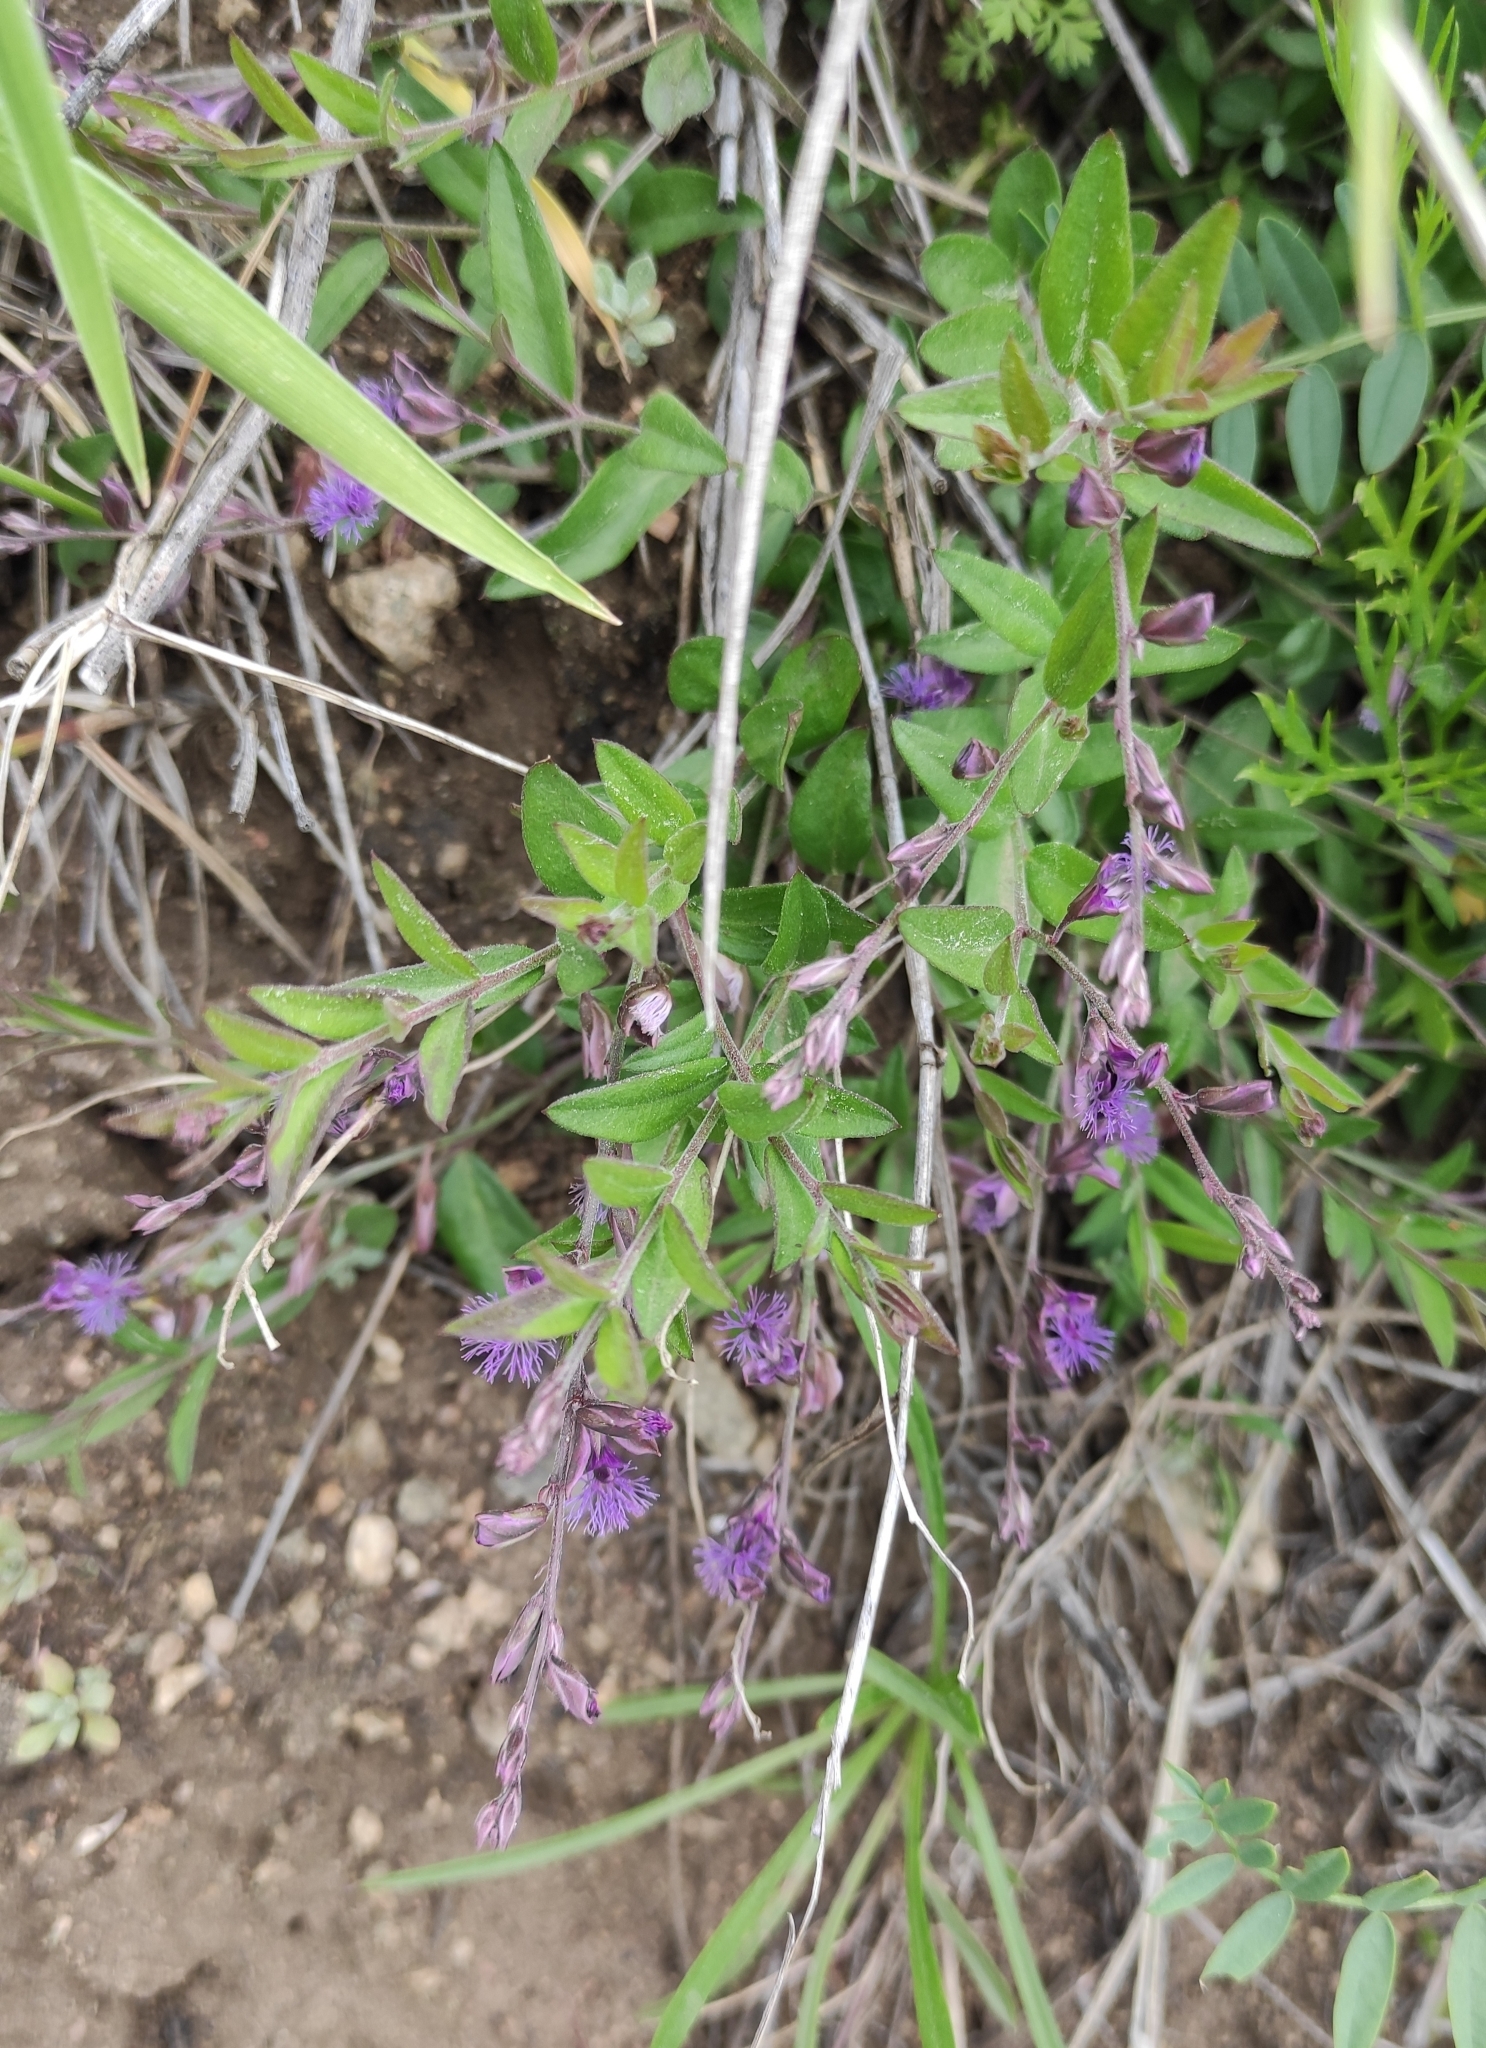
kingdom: Plantae
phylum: Tracheophyta
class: Magnoliopsida
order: Fabales
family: Polygalaceae
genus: Polygala
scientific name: Polygala sibirica
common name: Siberian polygala
